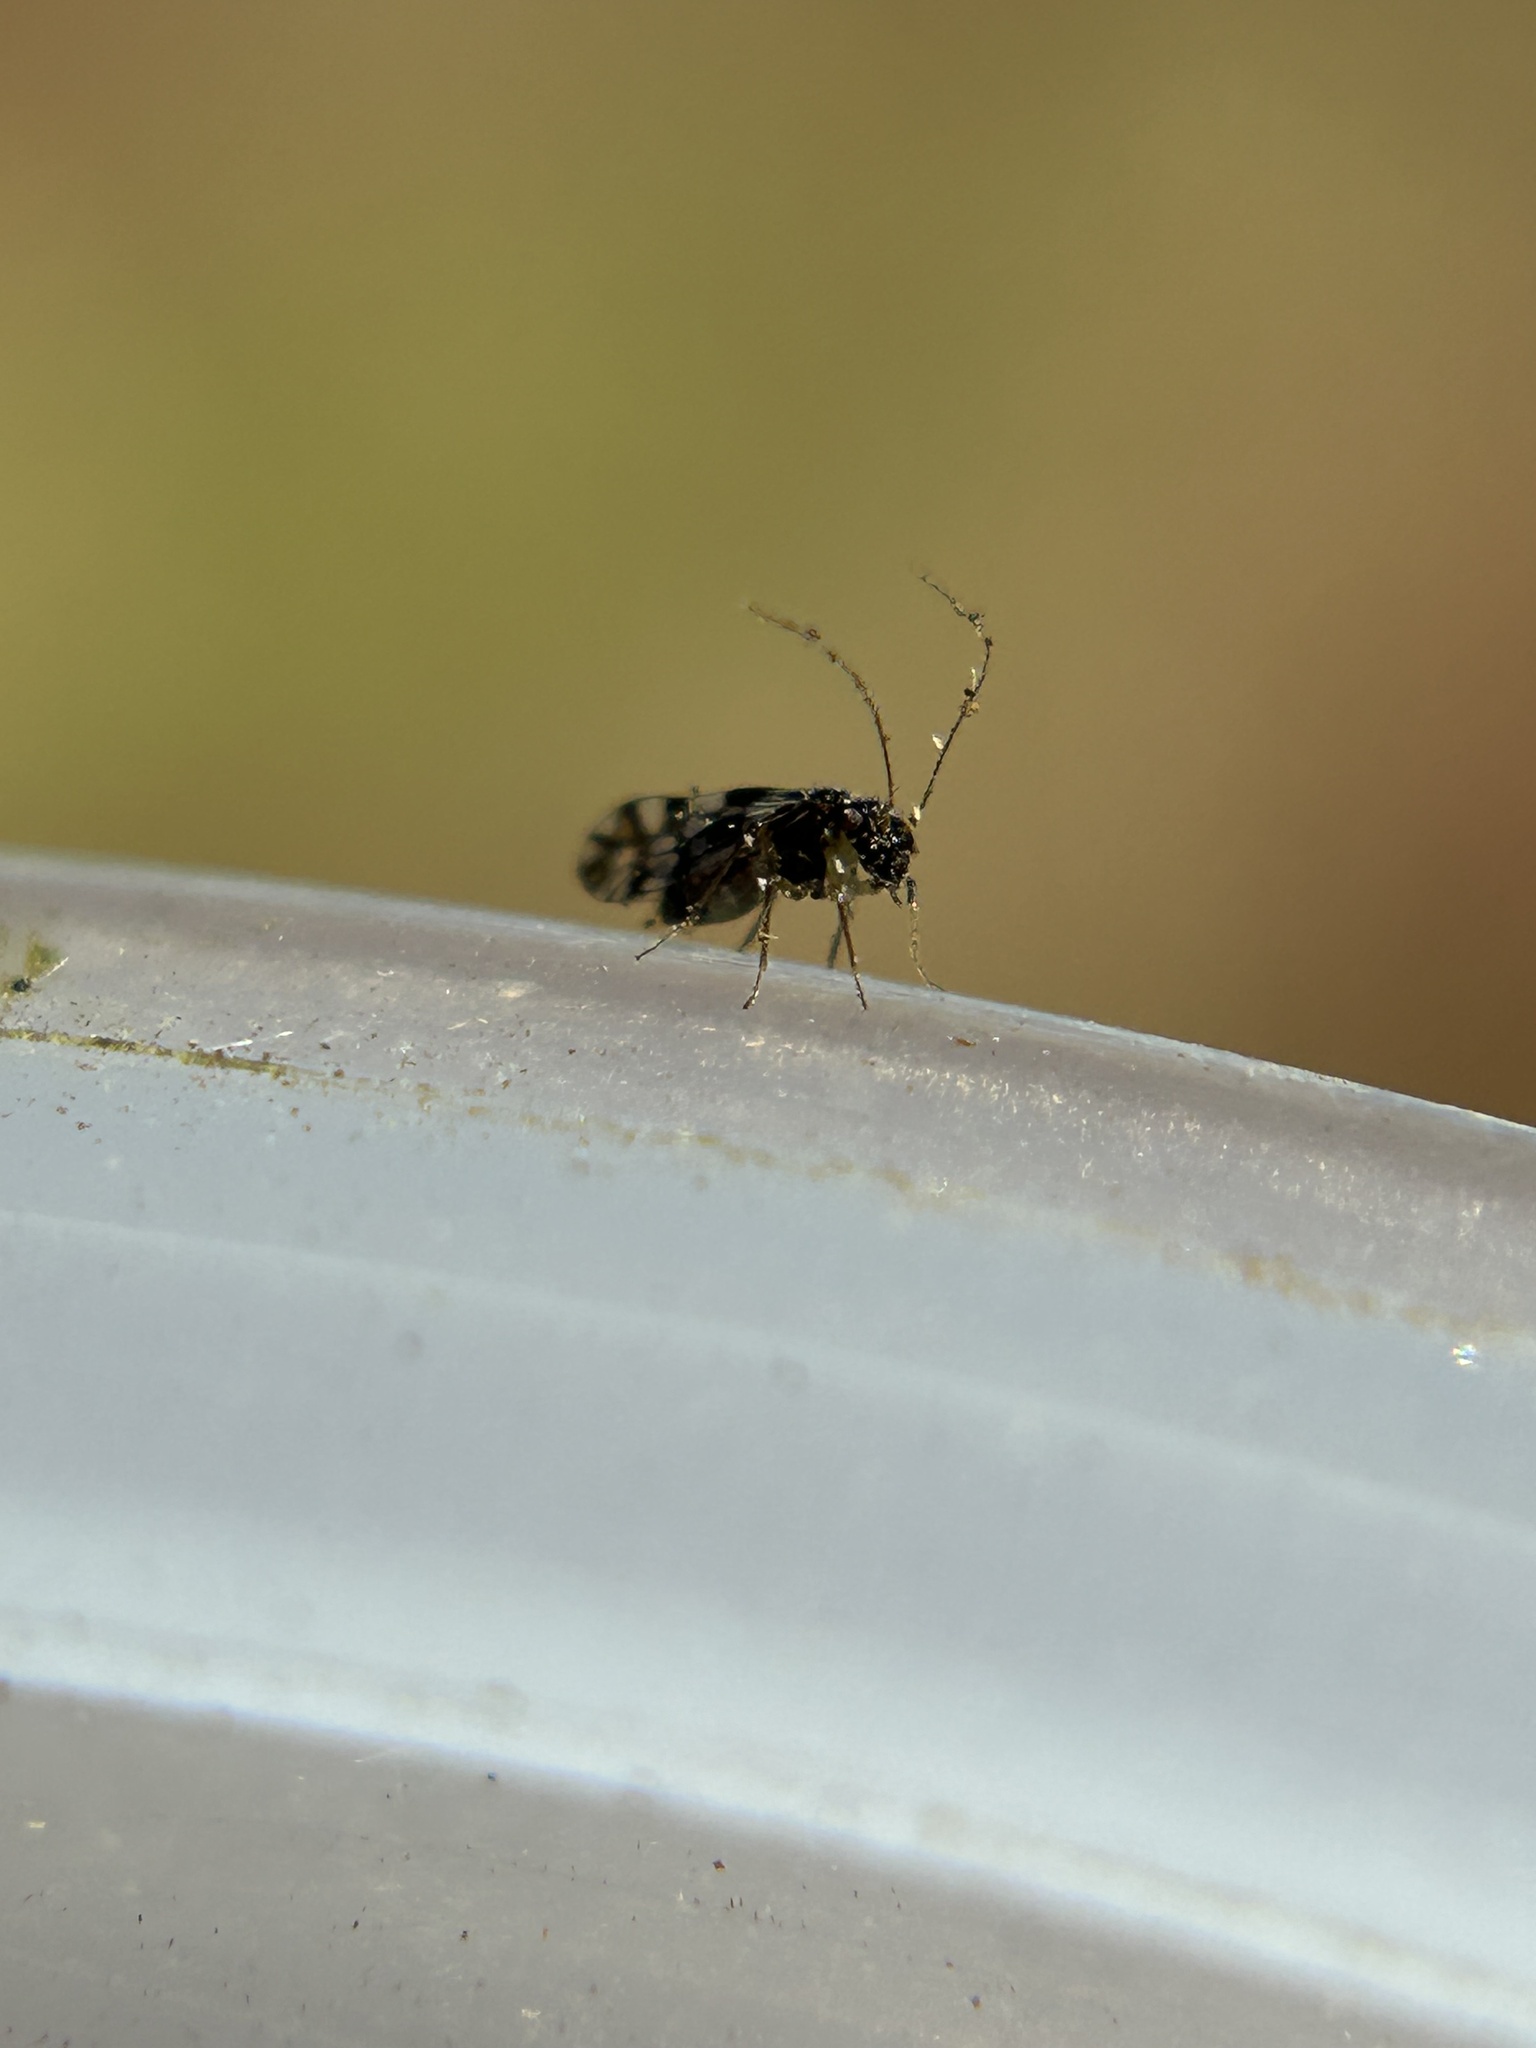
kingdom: Animalia
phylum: Arthropoda
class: Insecta
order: Psocodea
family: Elipsocidae
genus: Propsocus
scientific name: Propsocus pulchripennis
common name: Bark louse
